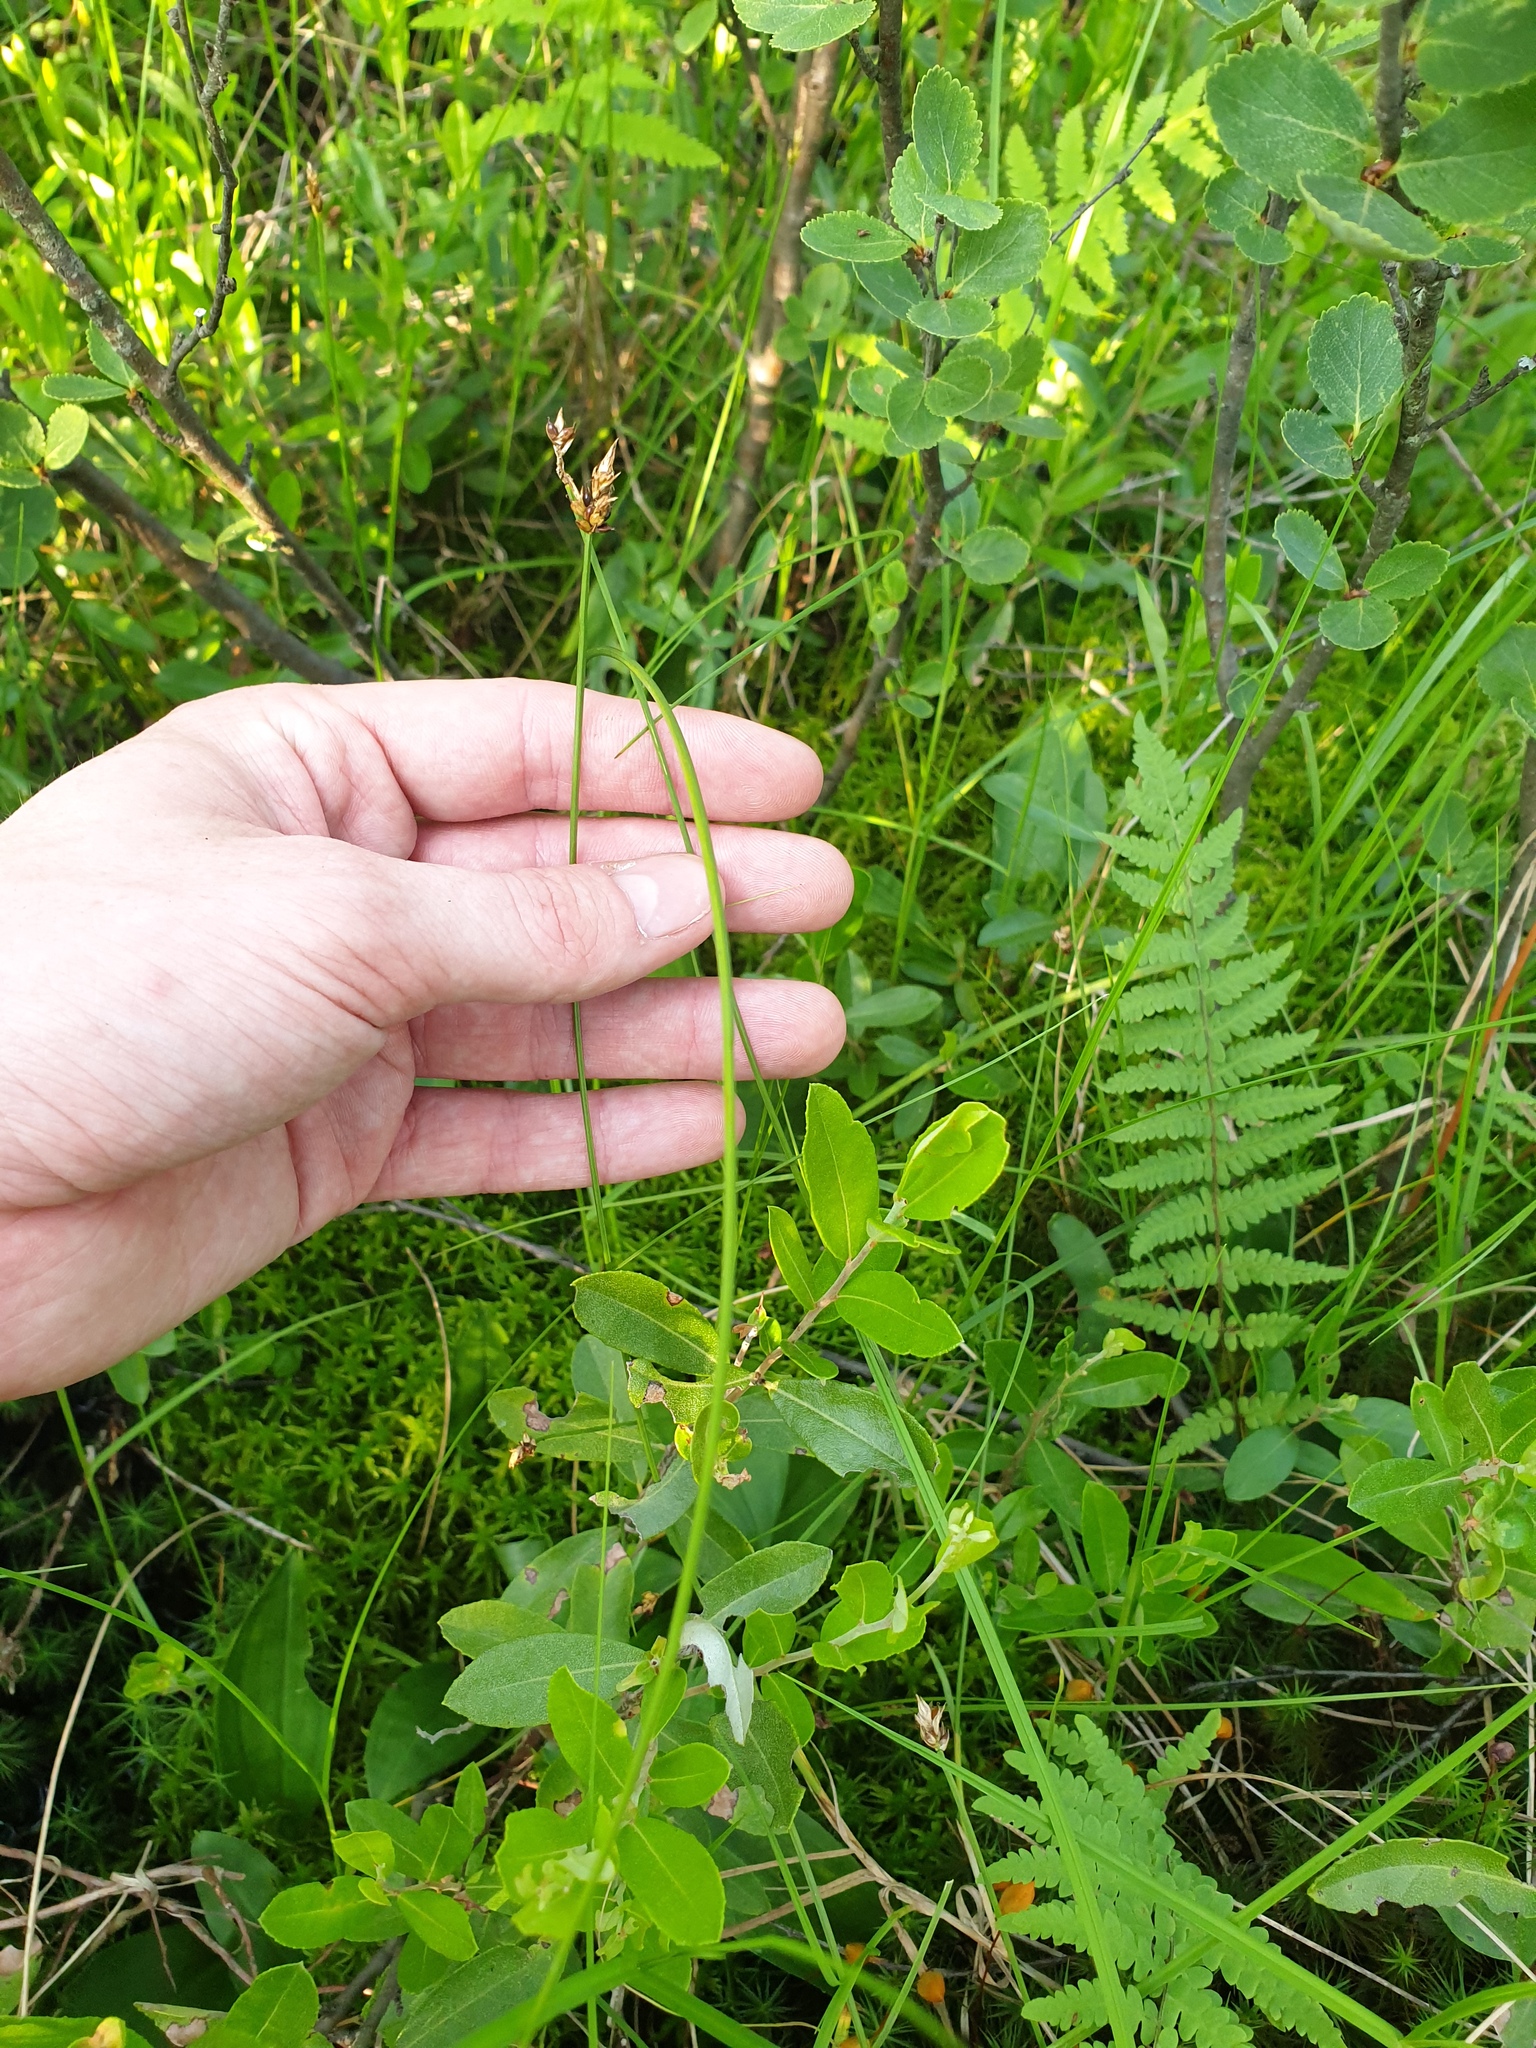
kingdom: Plantae
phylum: Tracheophyta
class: Liliopsida
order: Poales
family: Cyperaceae
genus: Carex
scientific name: Carex chordorrhiza
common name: String sedge
